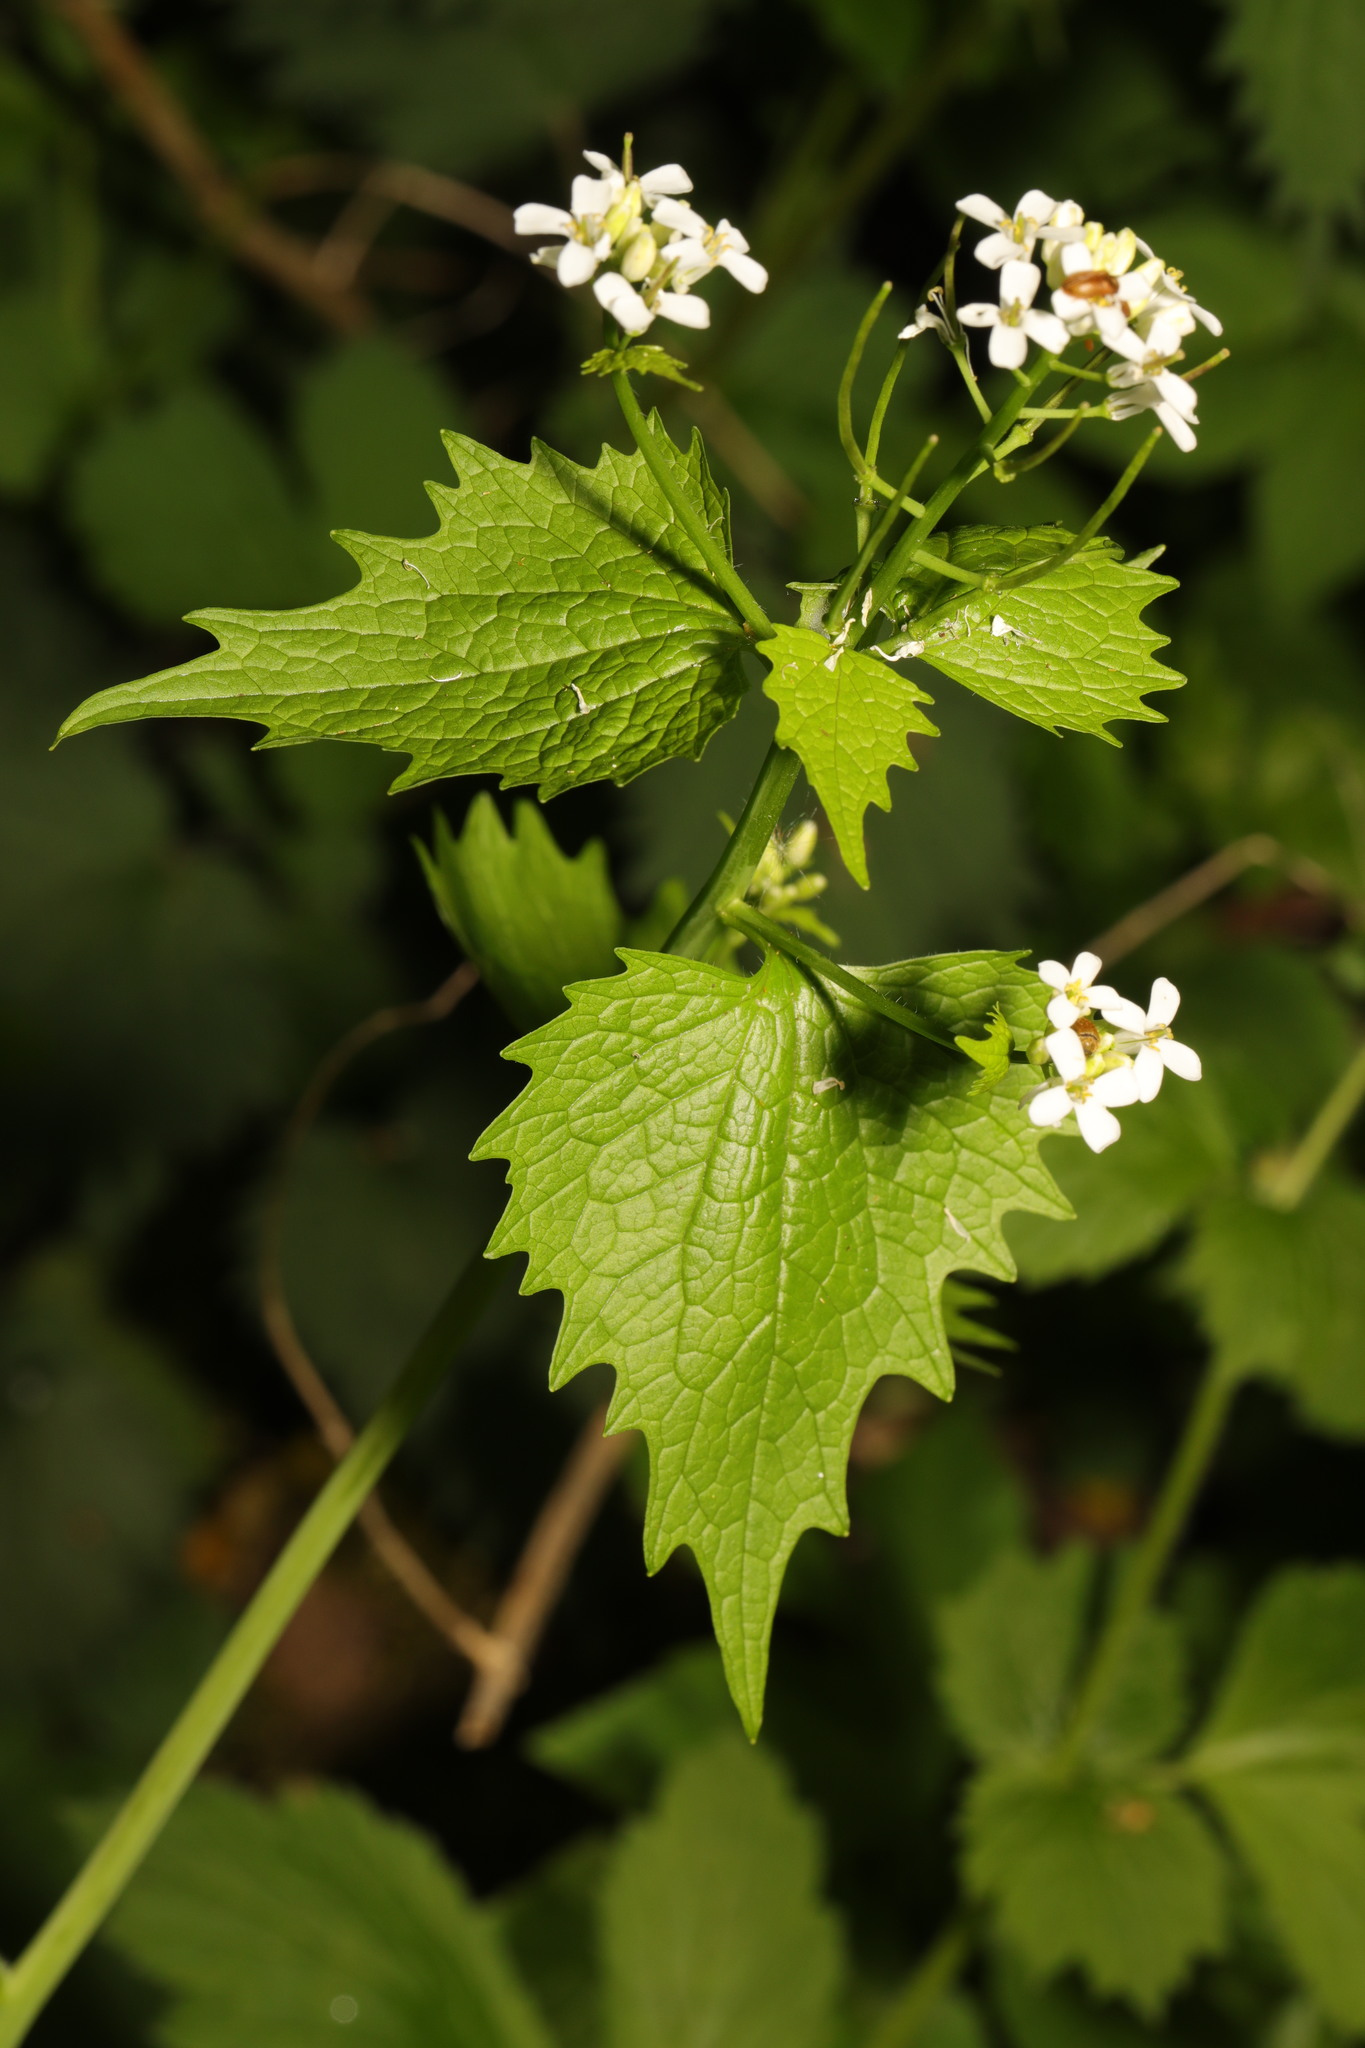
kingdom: Plantae
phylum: Tracheophyta
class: Magnoliopsida
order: Brassicales
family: Brassicaceae
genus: Alliaria
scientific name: Alliaria petiolata
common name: Garlic mustard
